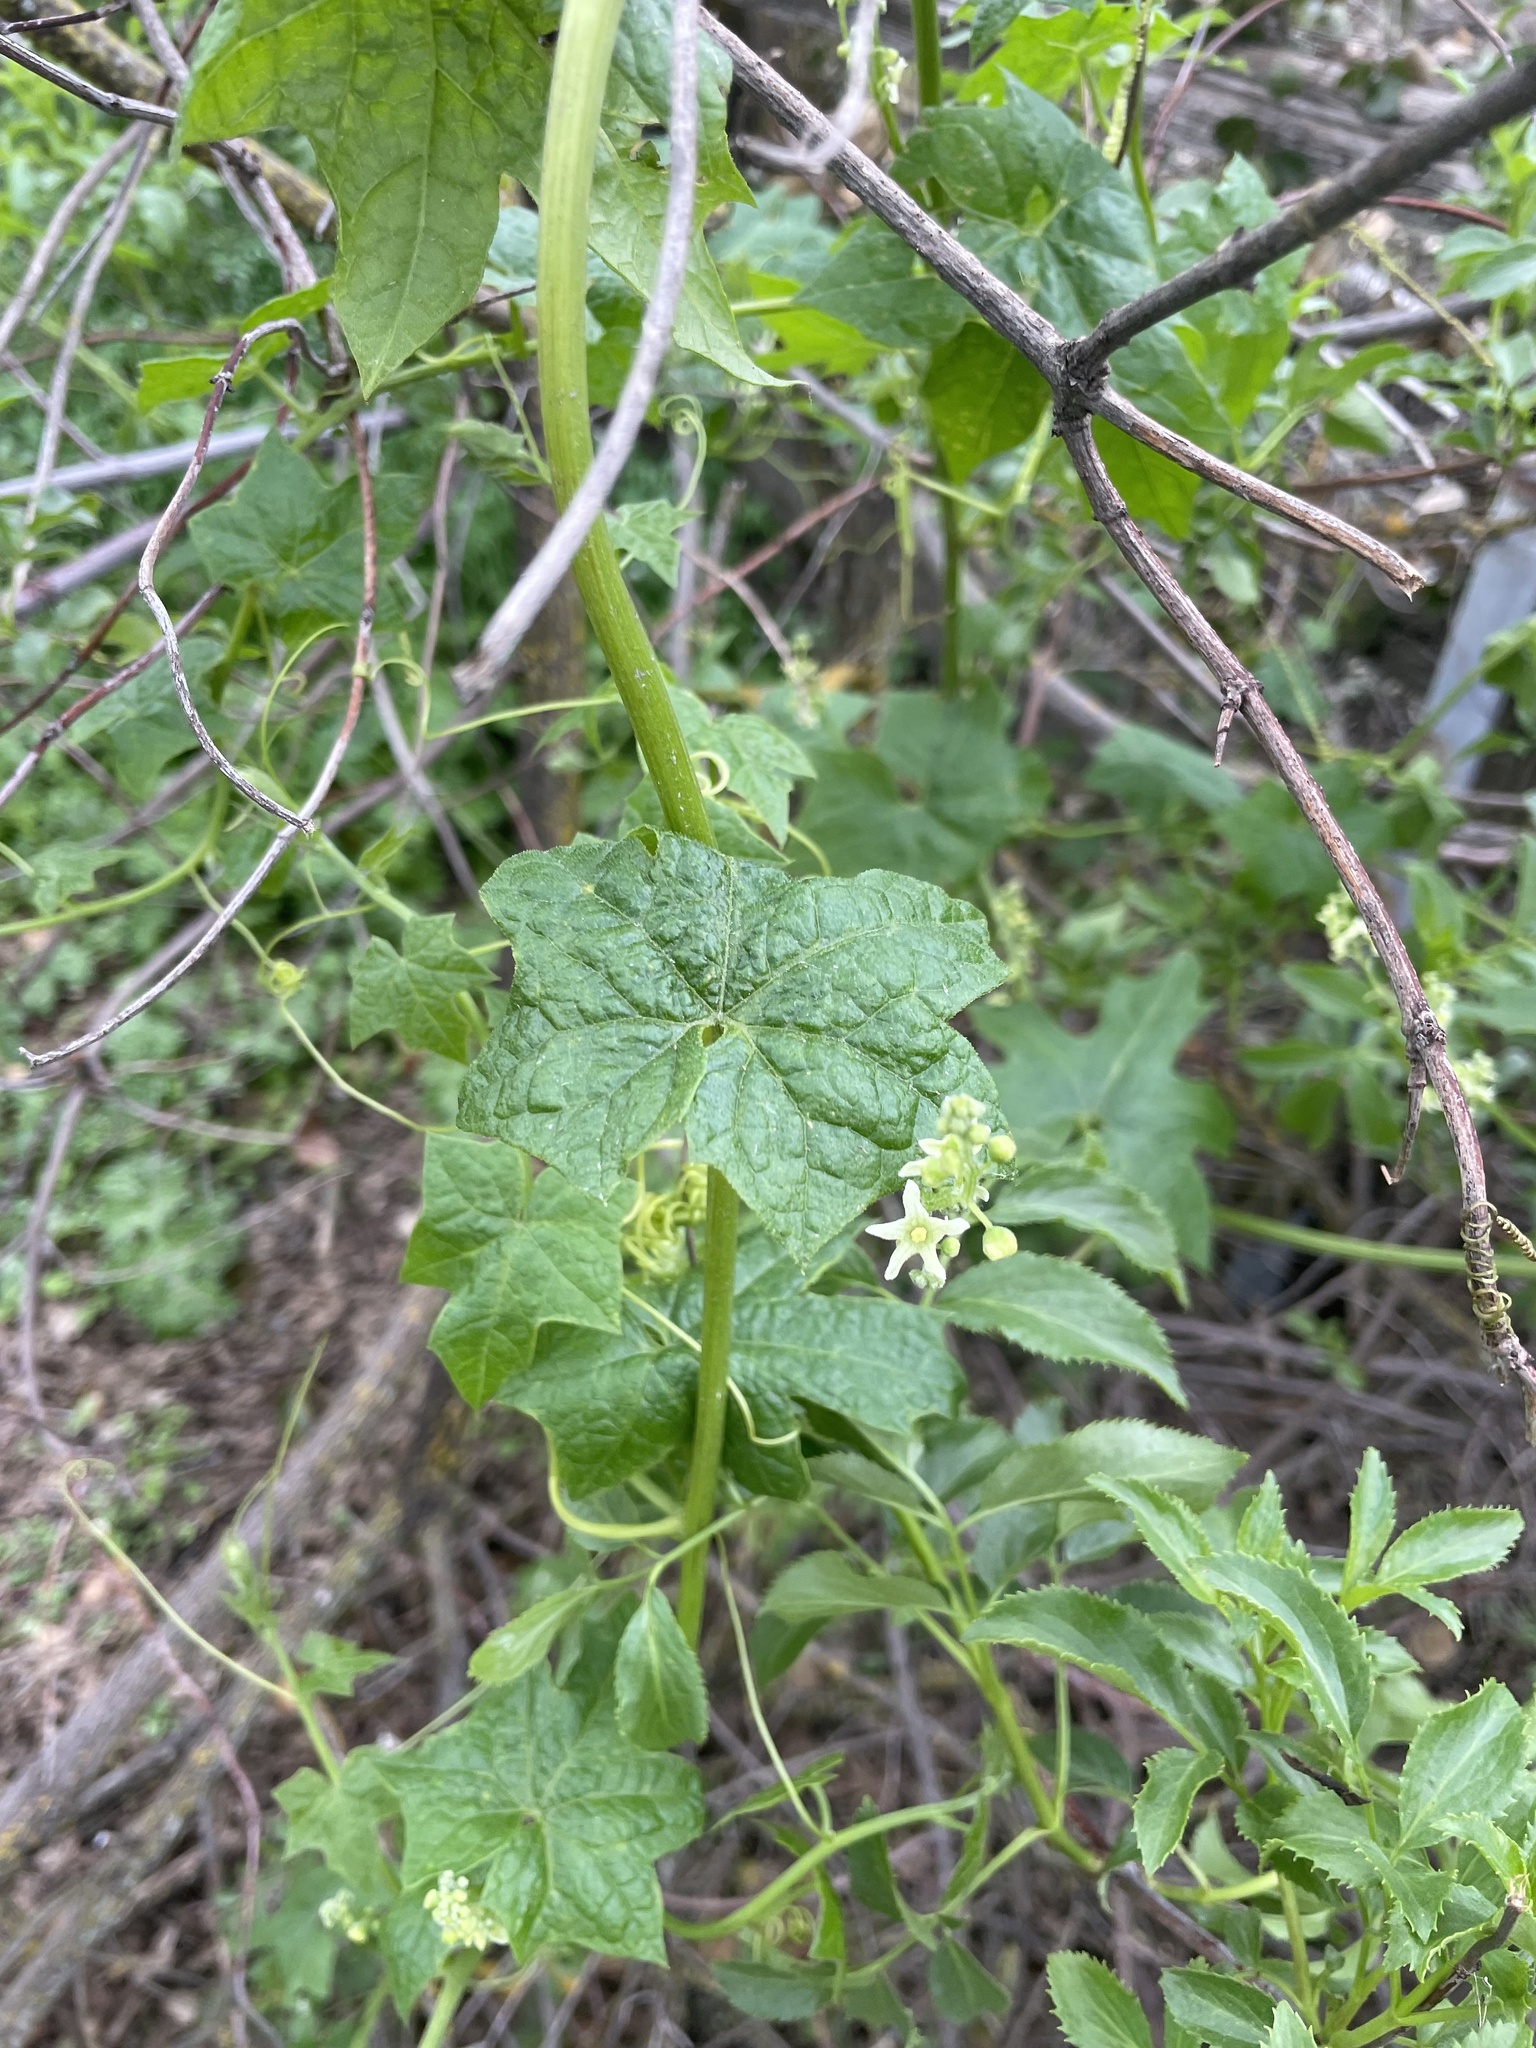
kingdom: Plantae
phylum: Tracheophyta
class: Magnoliopsida
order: Cucurbitales
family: Cucurbitaceae
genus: Marah
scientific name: Marah fabacea
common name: California manroot
